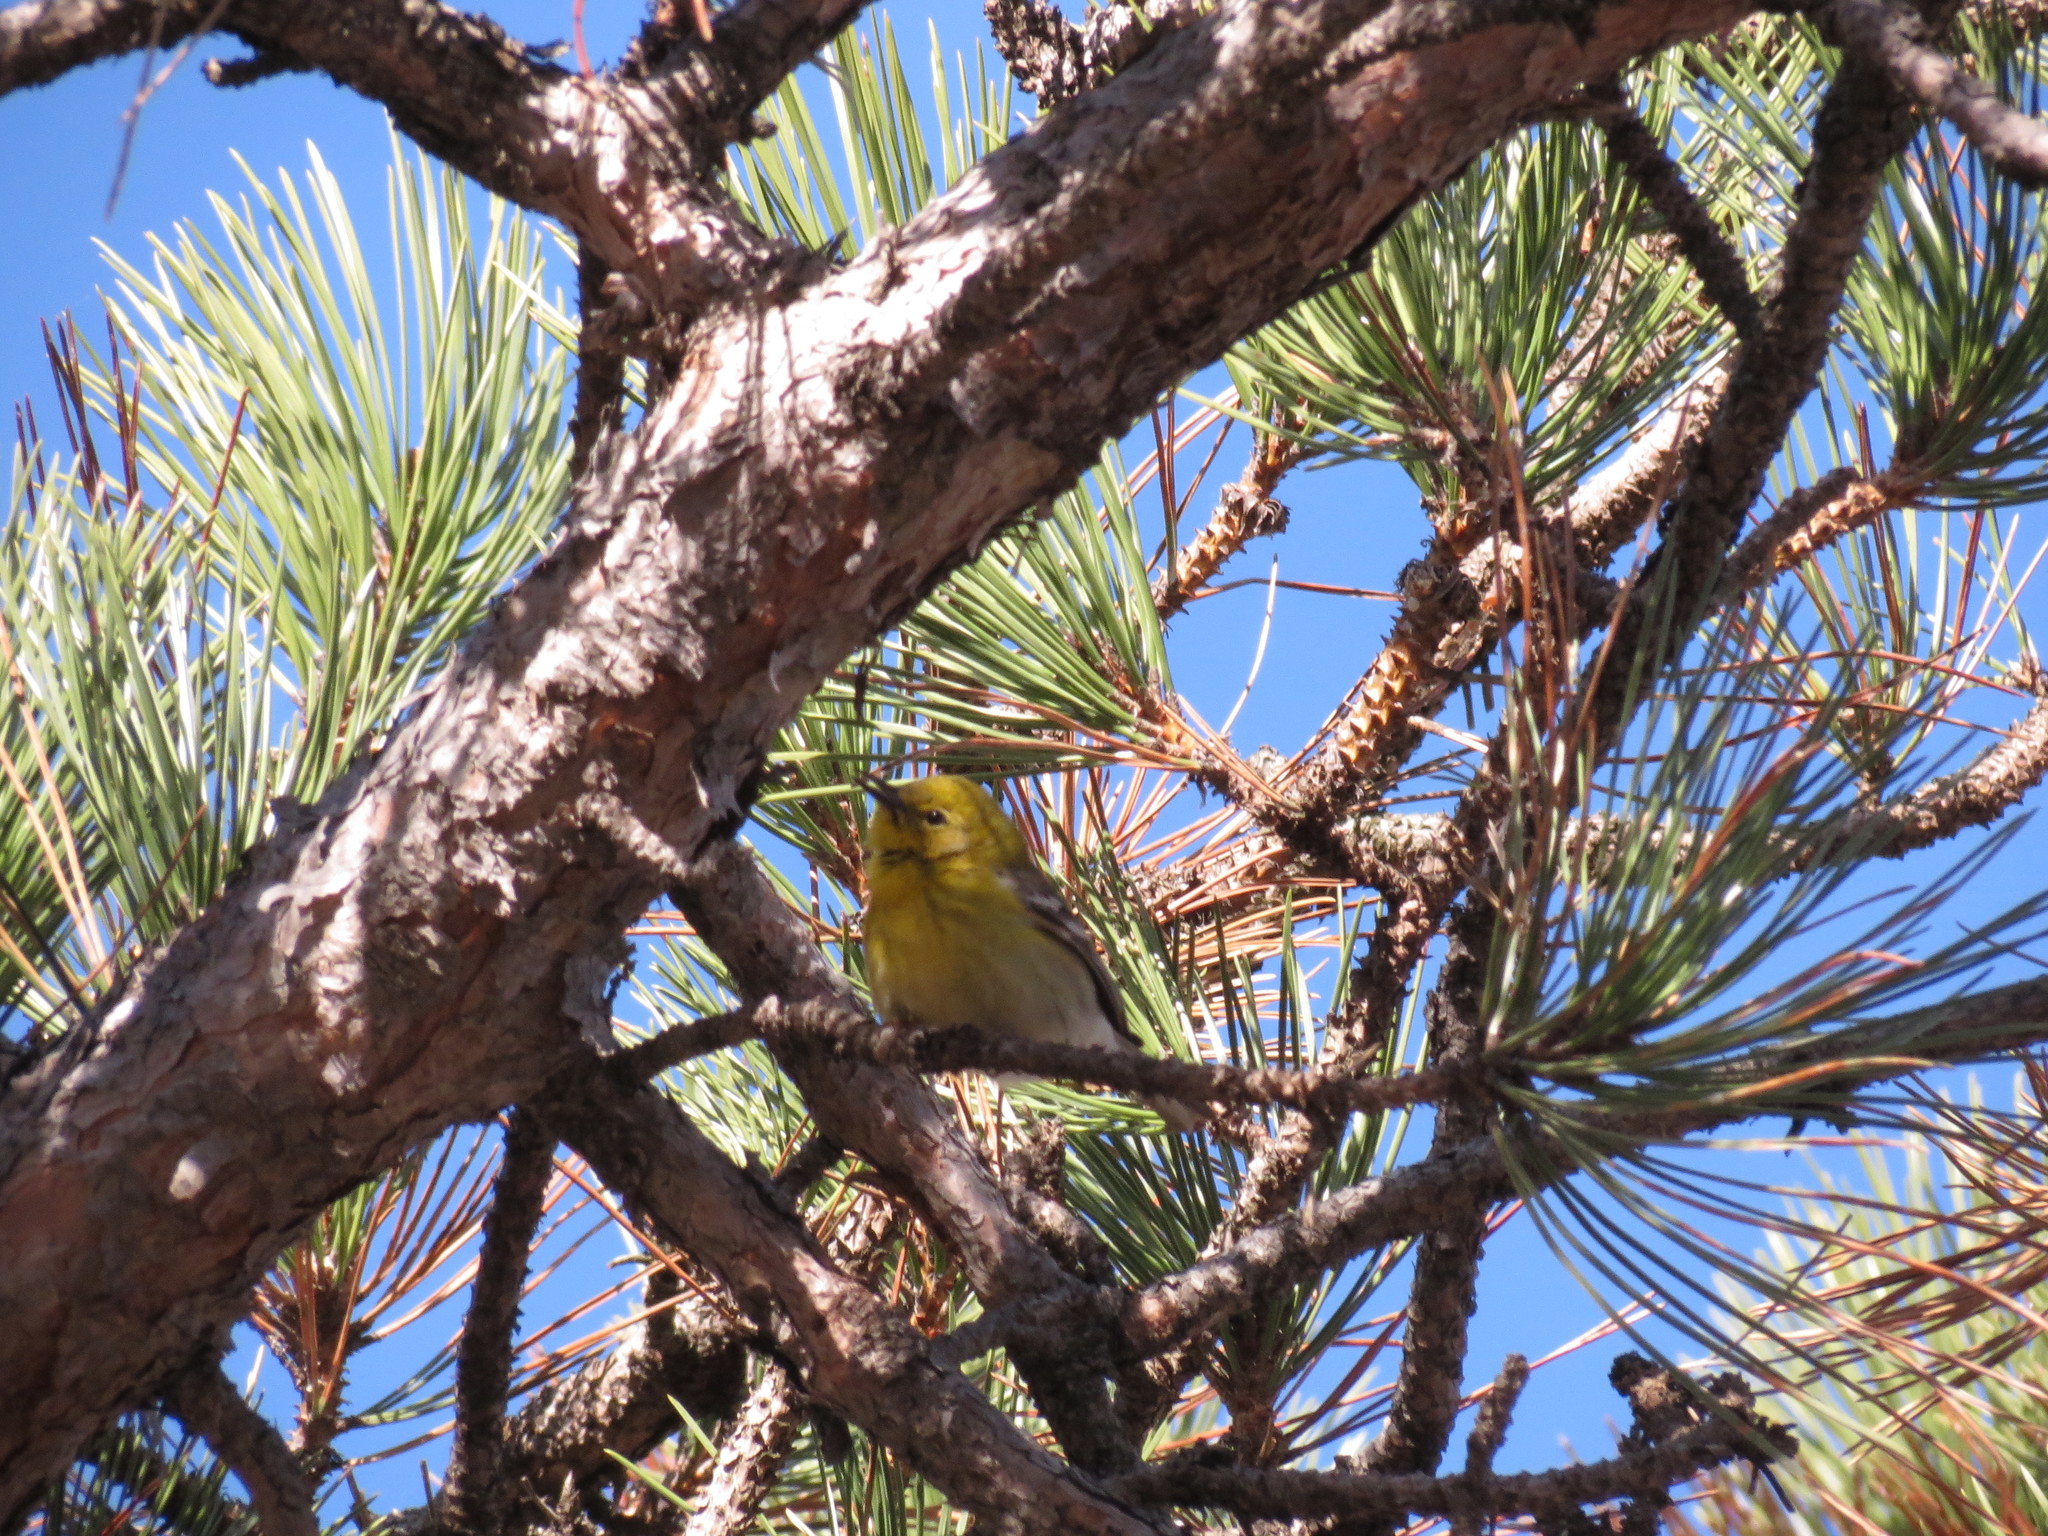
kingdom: Animalia
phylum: Chordata
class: Aves
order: Passeriformes
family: Parulidae
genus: Setophaga
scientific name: Setophaga pinus
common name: Pine warbler
